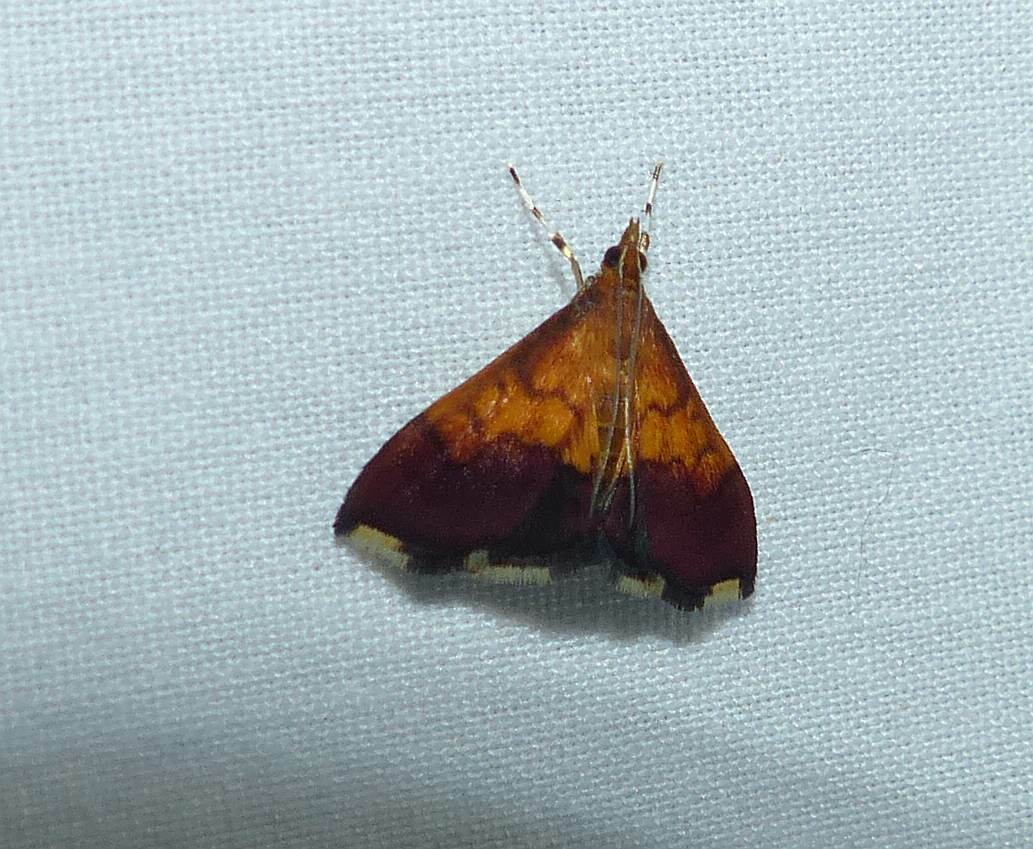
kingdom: Animalia
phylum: Arthropoda
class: Insecta
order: Lepidoptera
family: Crambidae
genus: Pyrausta
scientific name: Pyrausta bicoloralis
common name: Bicolored pyrausta moth
